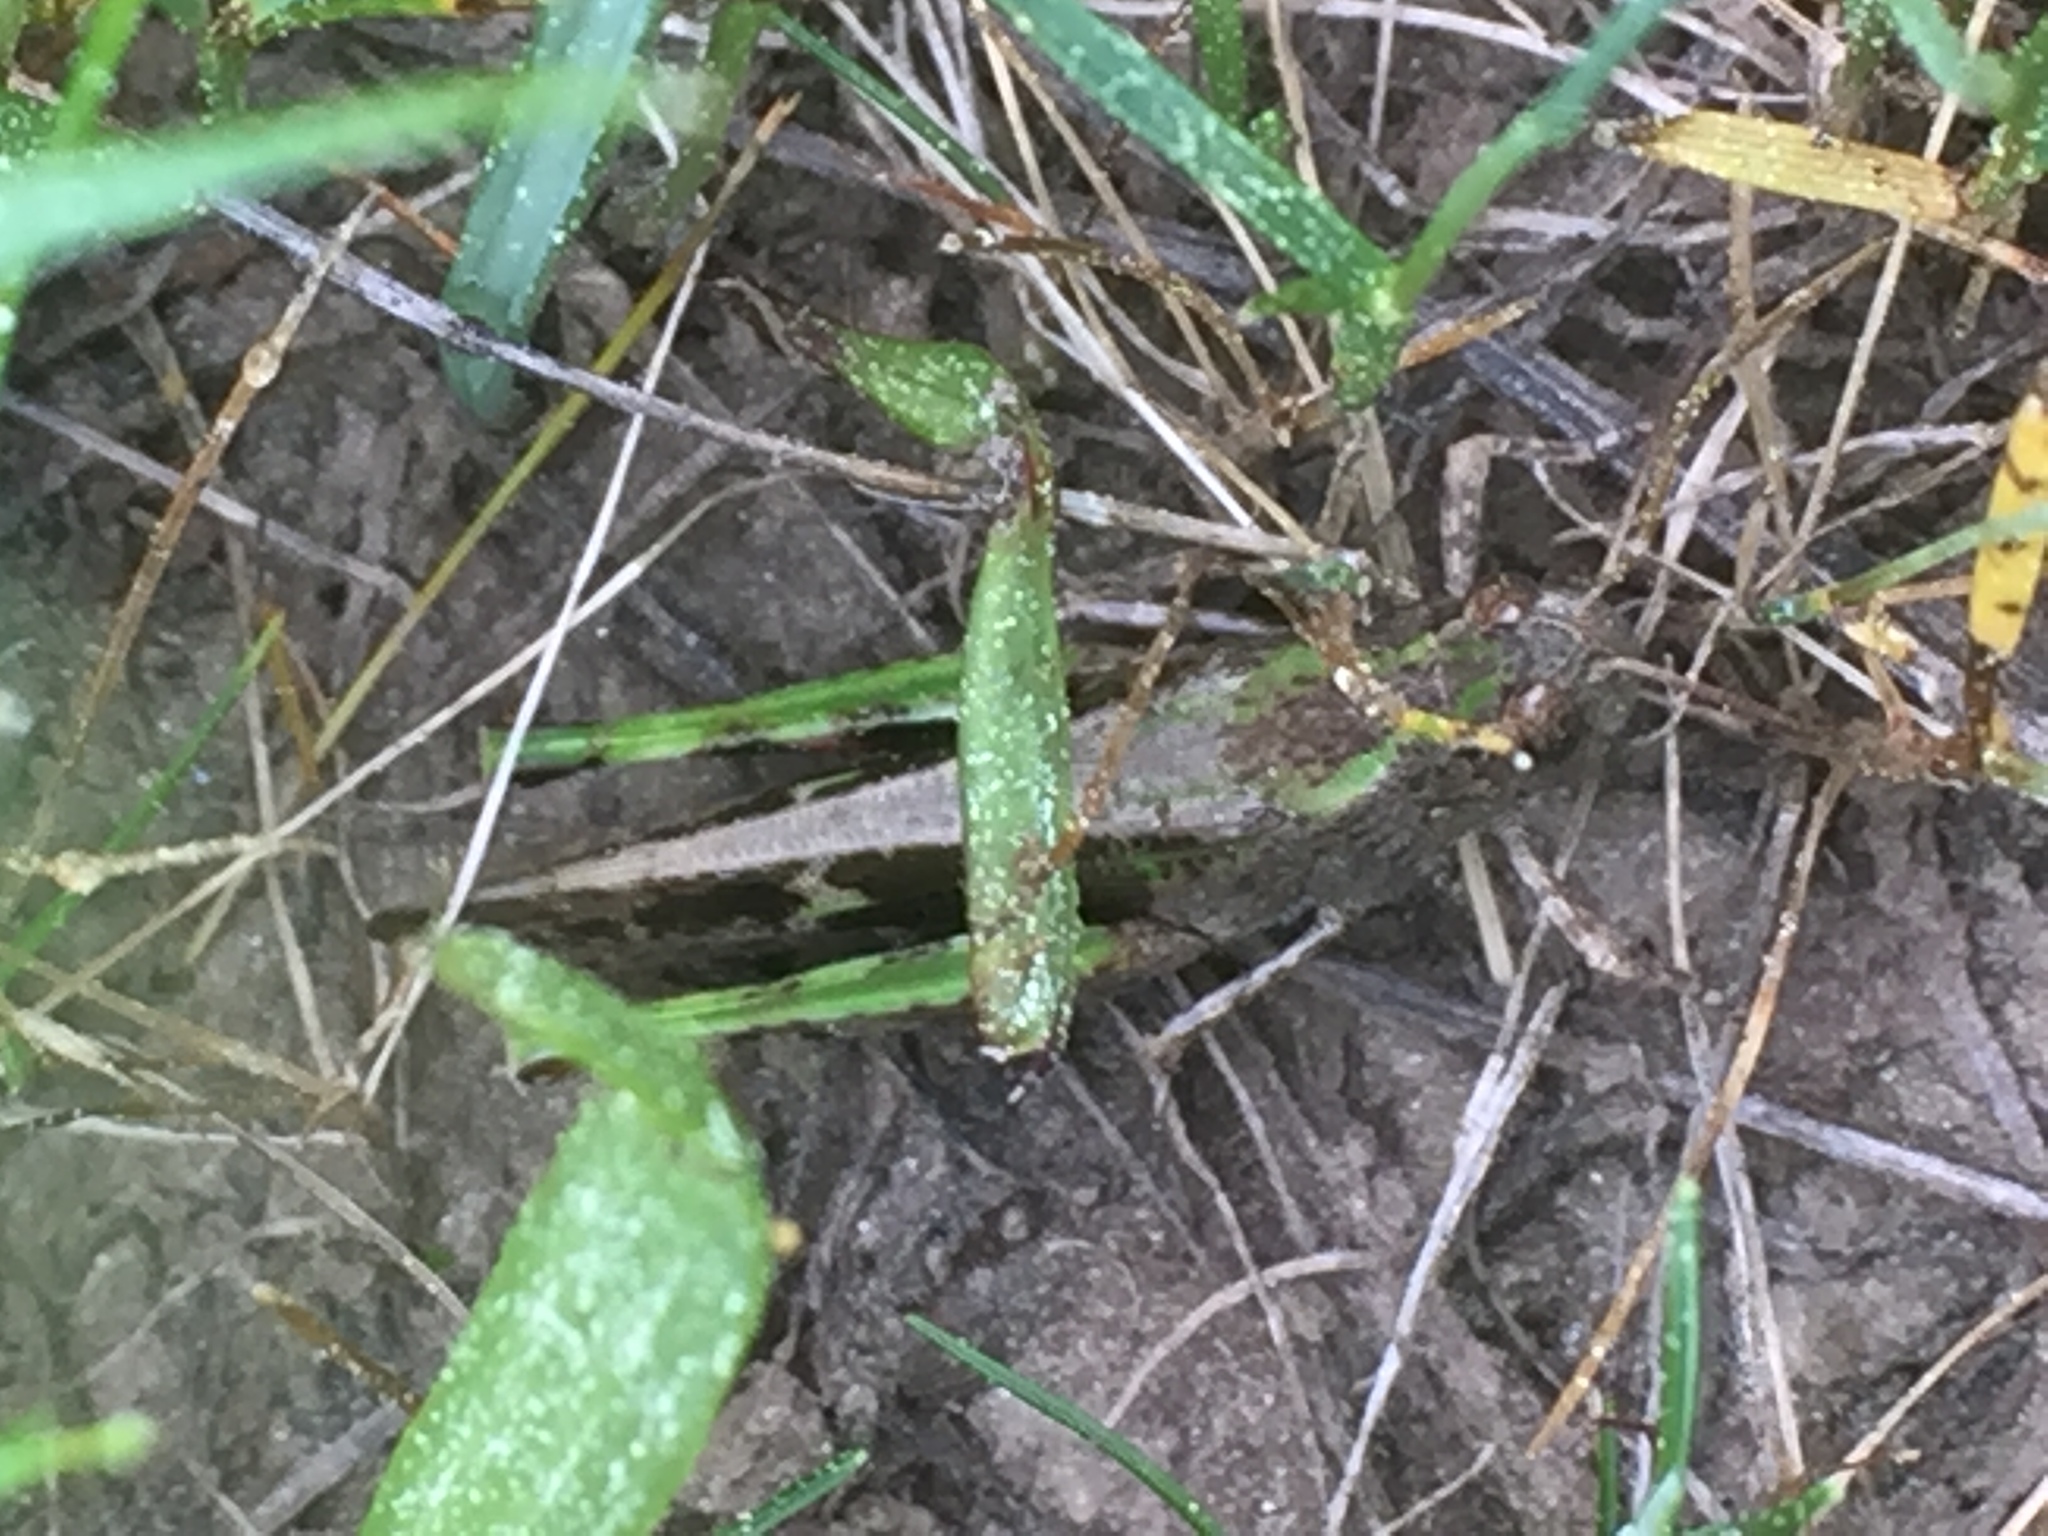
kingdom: Animalia
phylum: Arthropoda
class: Insecta
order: Orthoptera
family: Acrididae
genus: Aiolopus
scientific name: Aiolopus strepens
